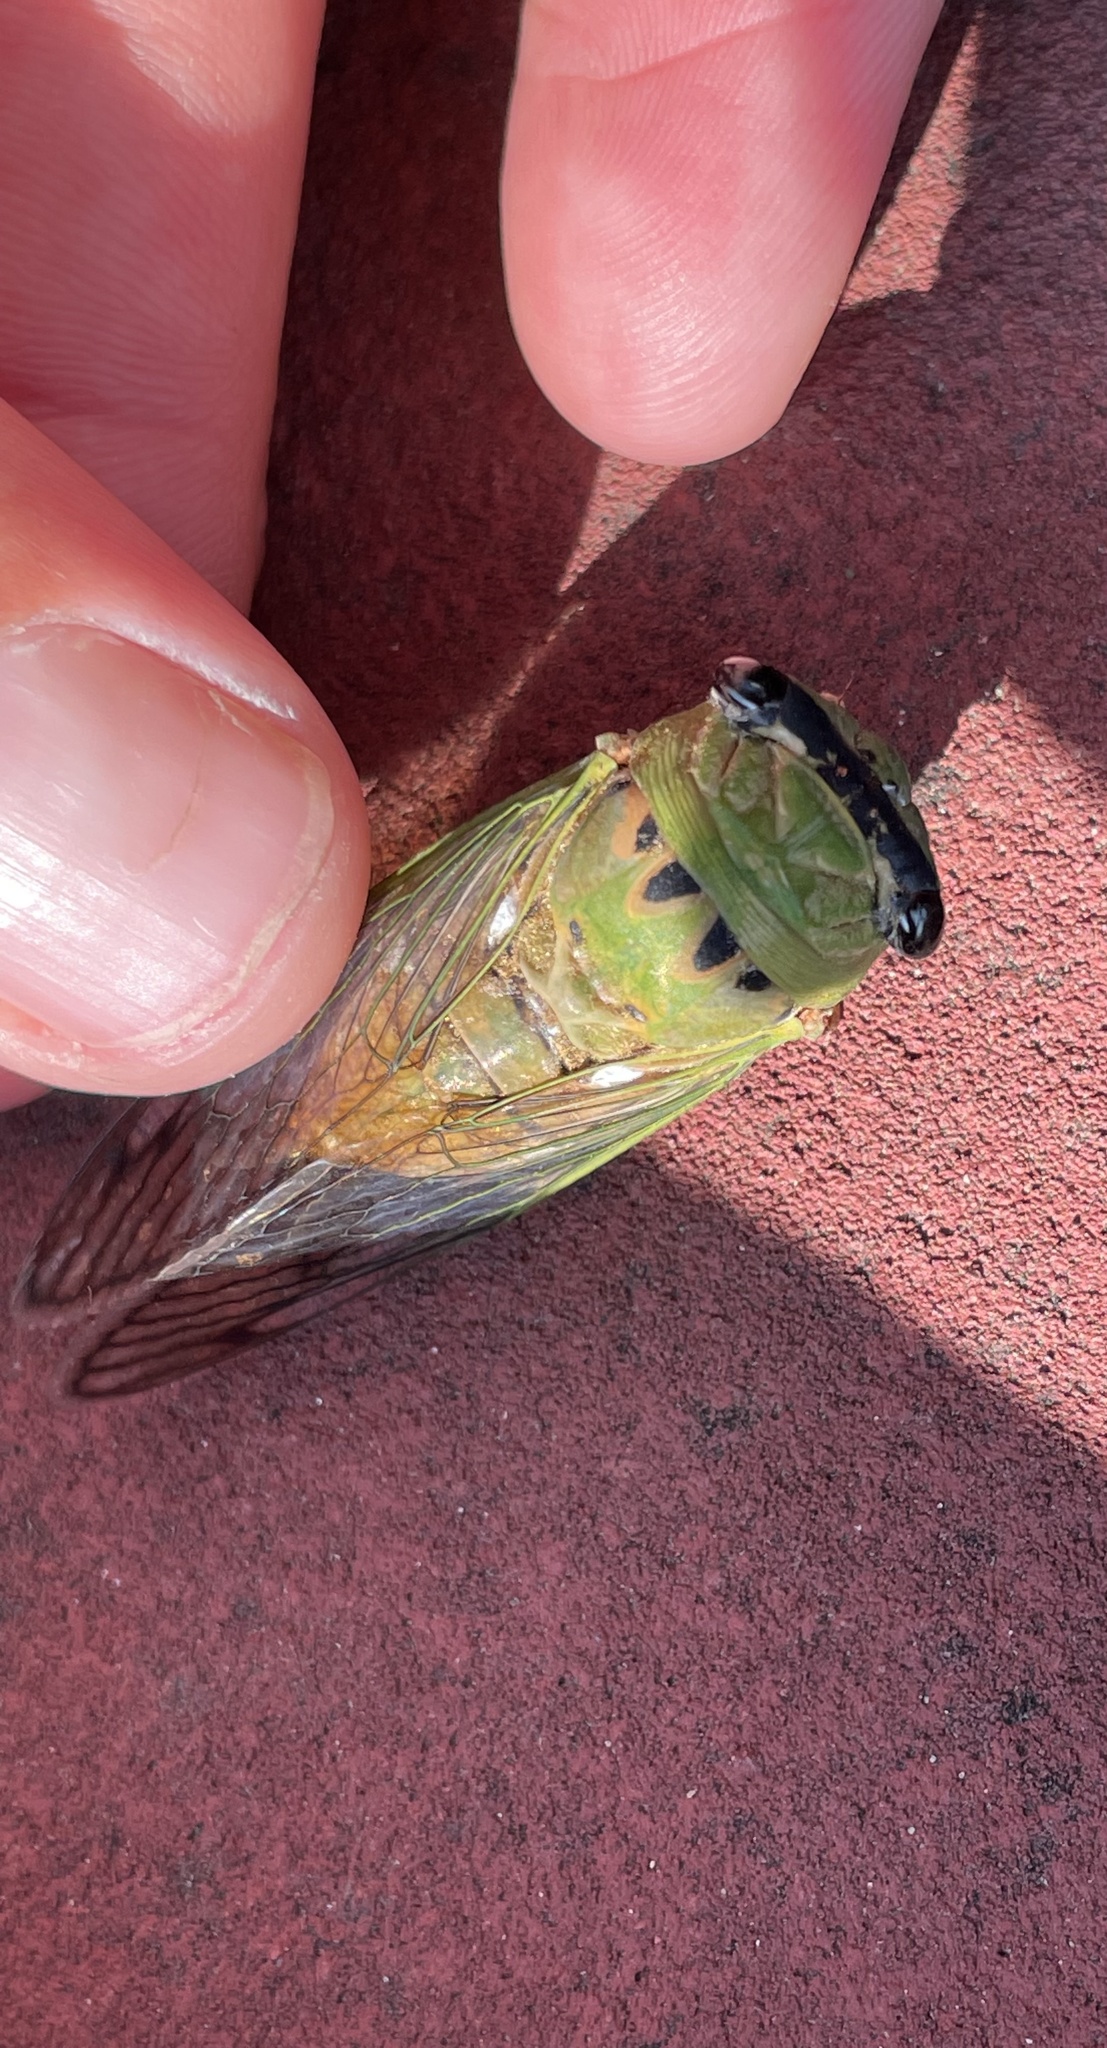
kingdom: Animalia
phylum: Arthropoda
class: Insecta
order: Hemiptera
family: Cicadidae
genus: Neotibicen
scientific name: Neotibicen superbus
